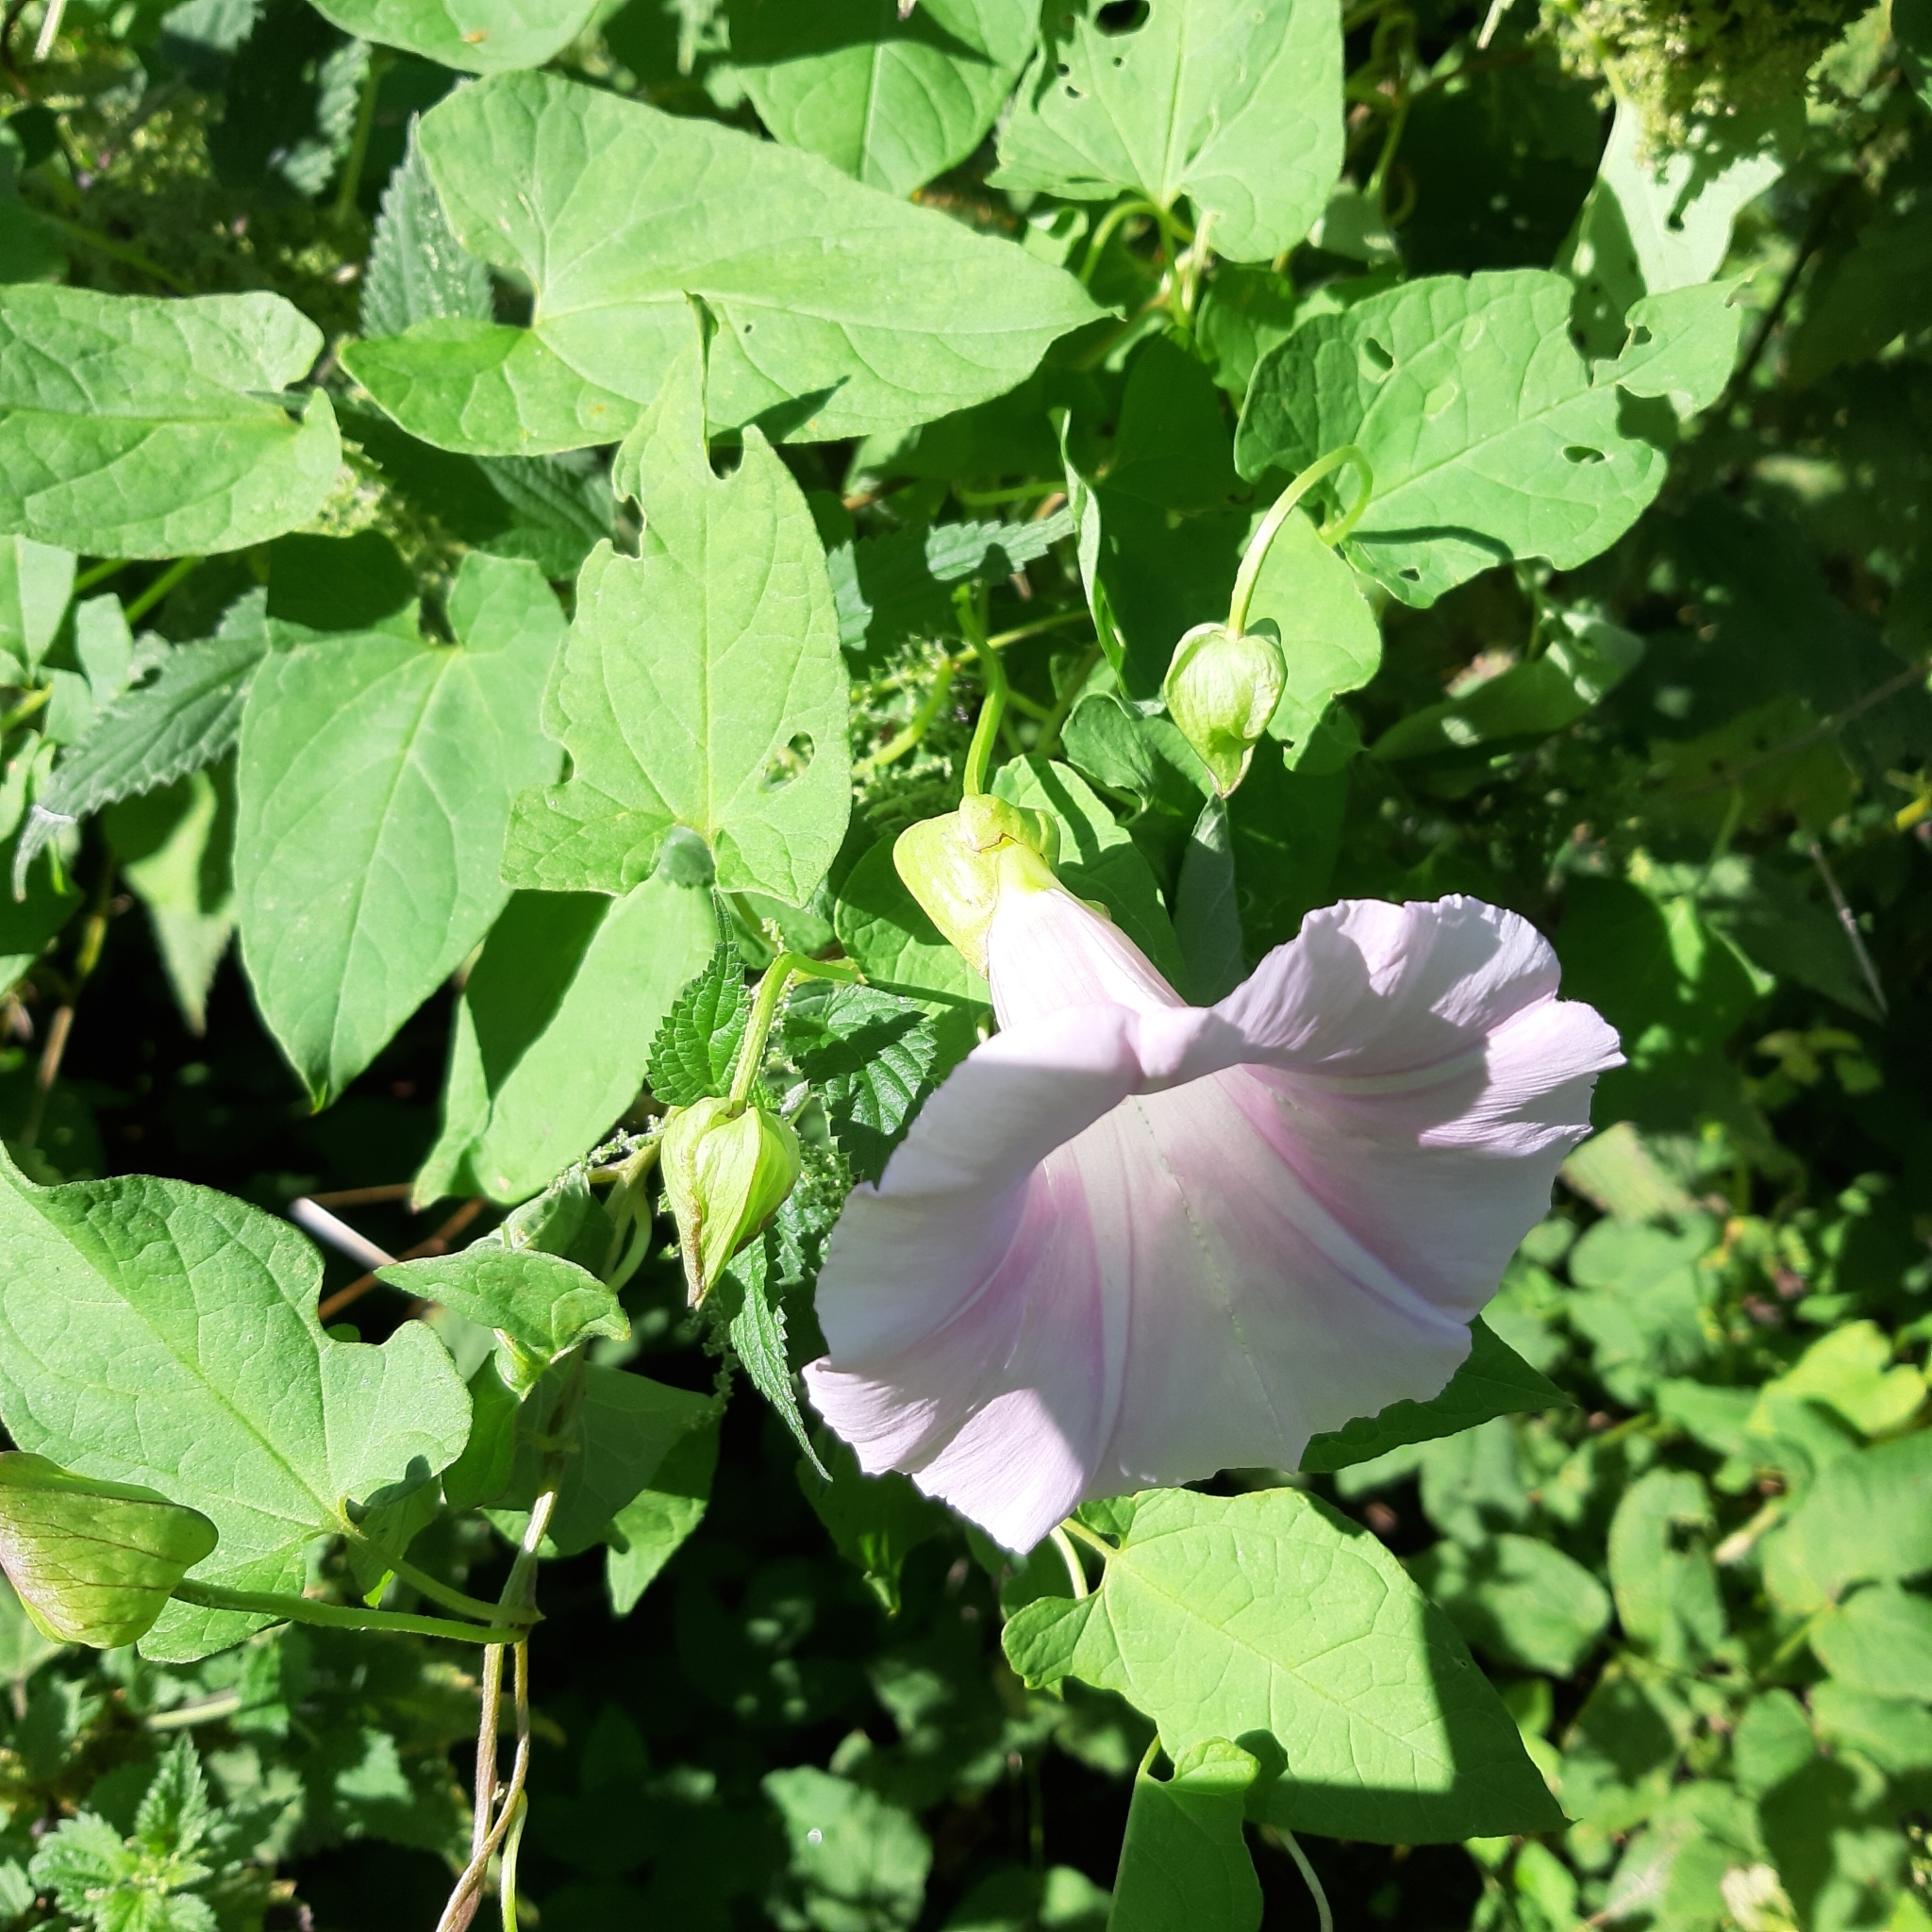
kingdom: Plantae
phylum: Tracheophyta
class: Magnoliopsida
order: Solanales
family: Convolvulaceae
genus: Calystegia
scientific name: Calystegia pulchra
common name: Hairy bindweed
